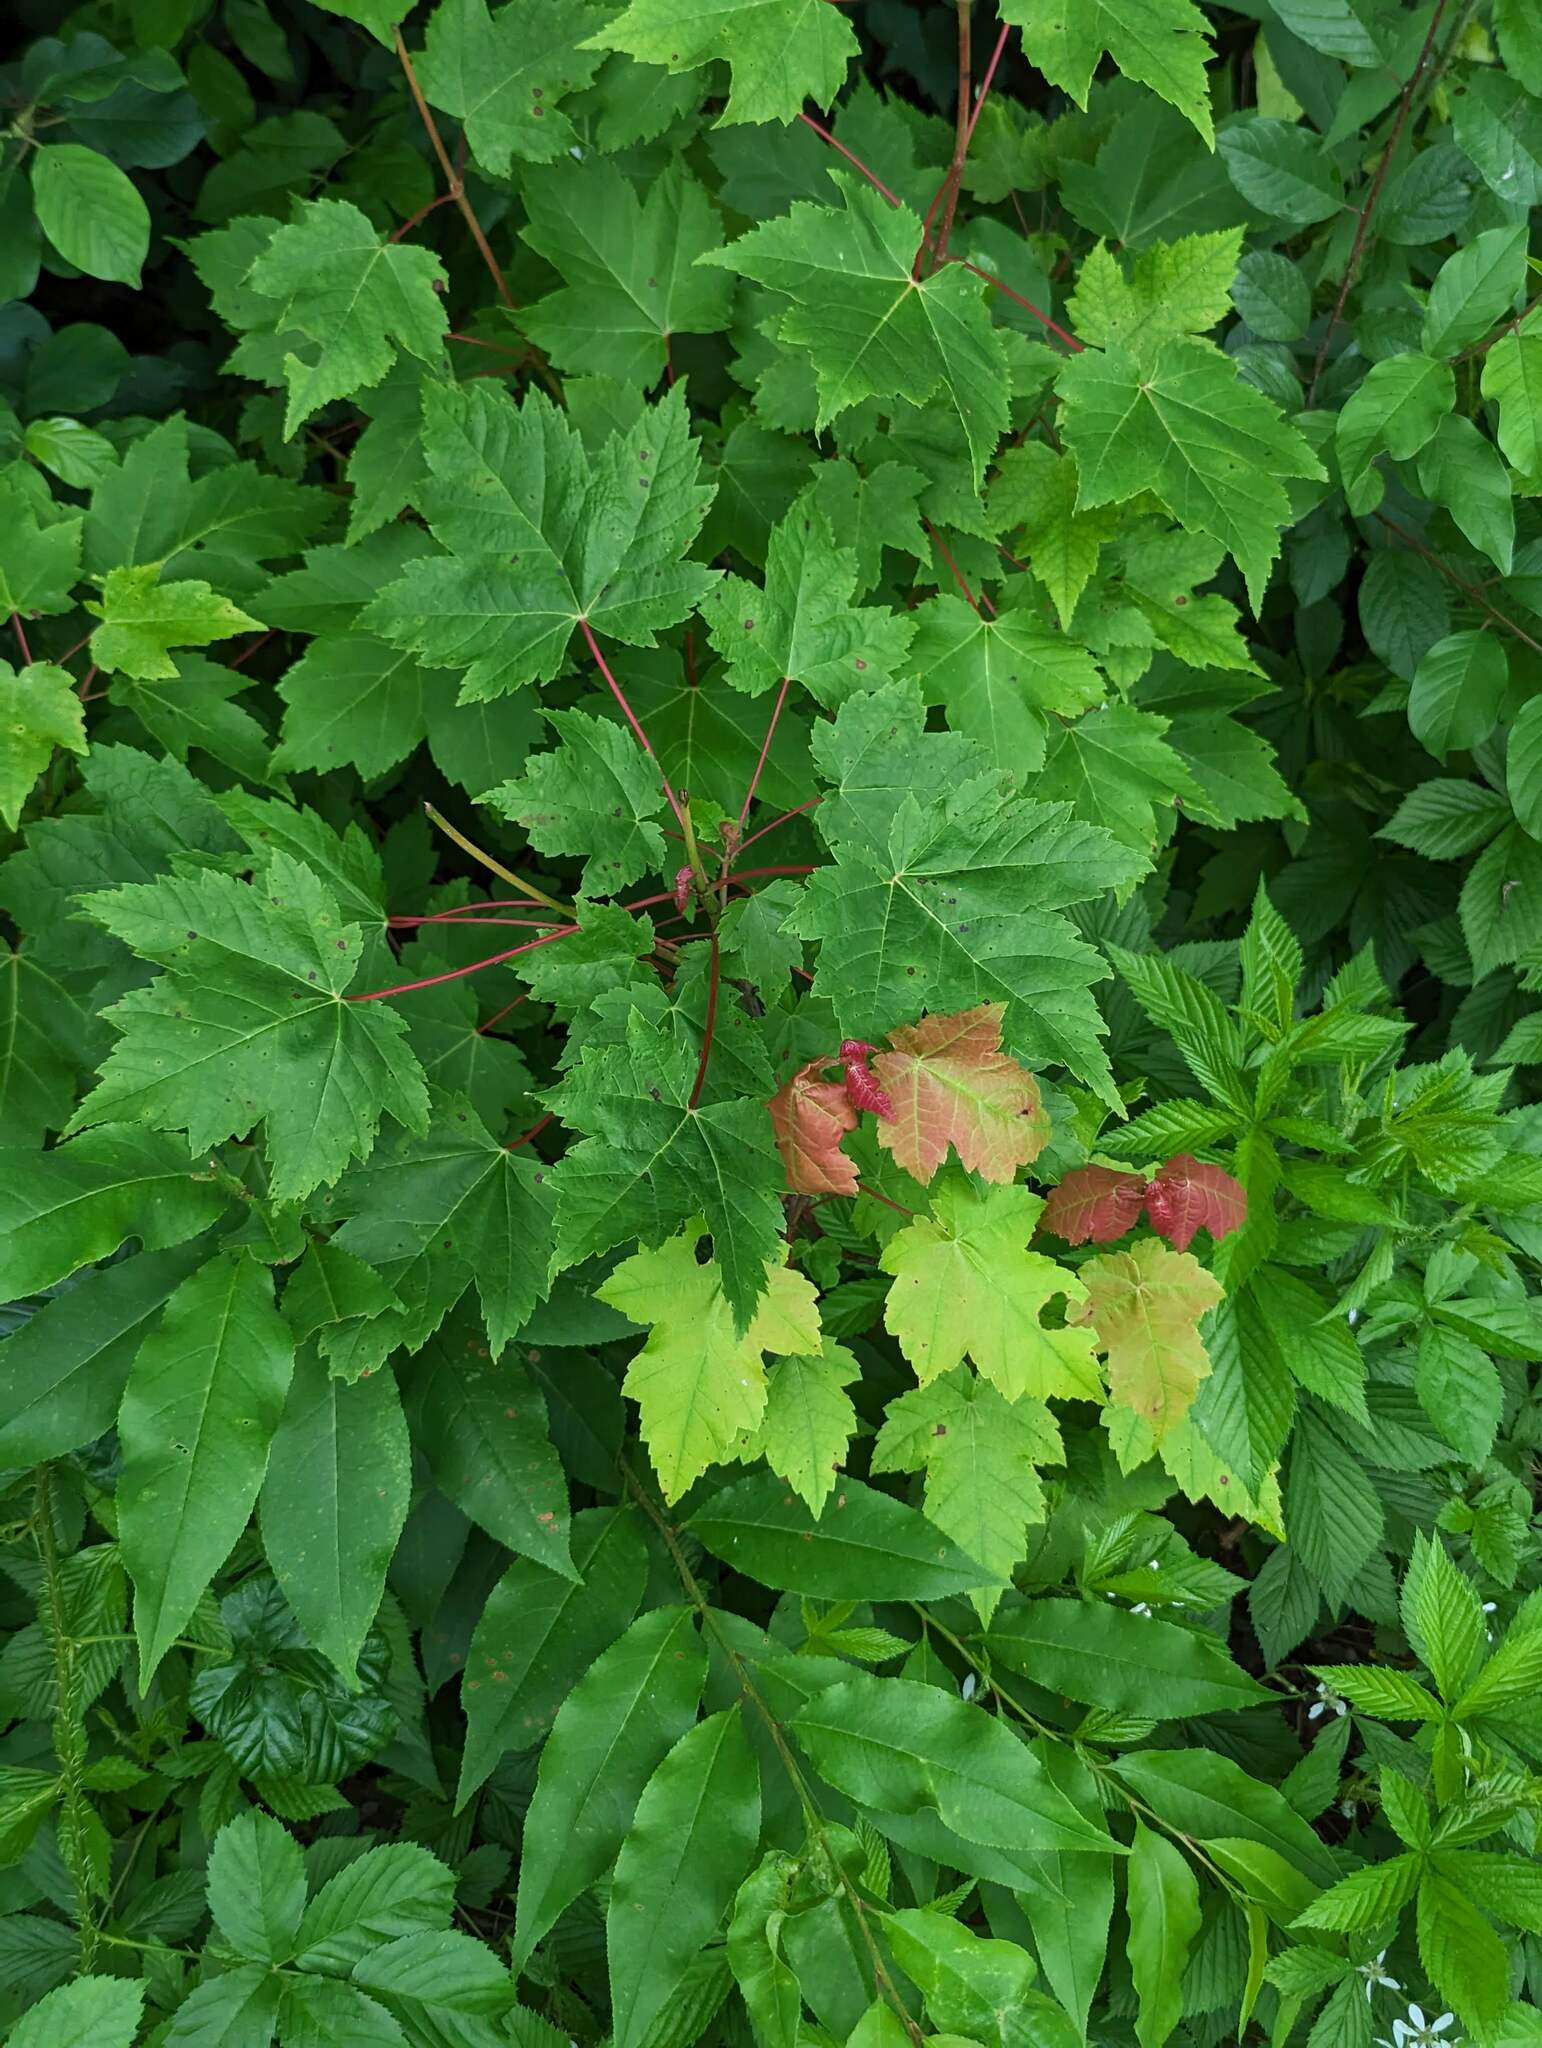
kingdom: Plantae
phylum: Tracheophyta
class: Magnoliopsida
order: Sapindales
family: Sapindaceae
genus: Acer
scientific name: Acer rubrum
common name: Red maple
